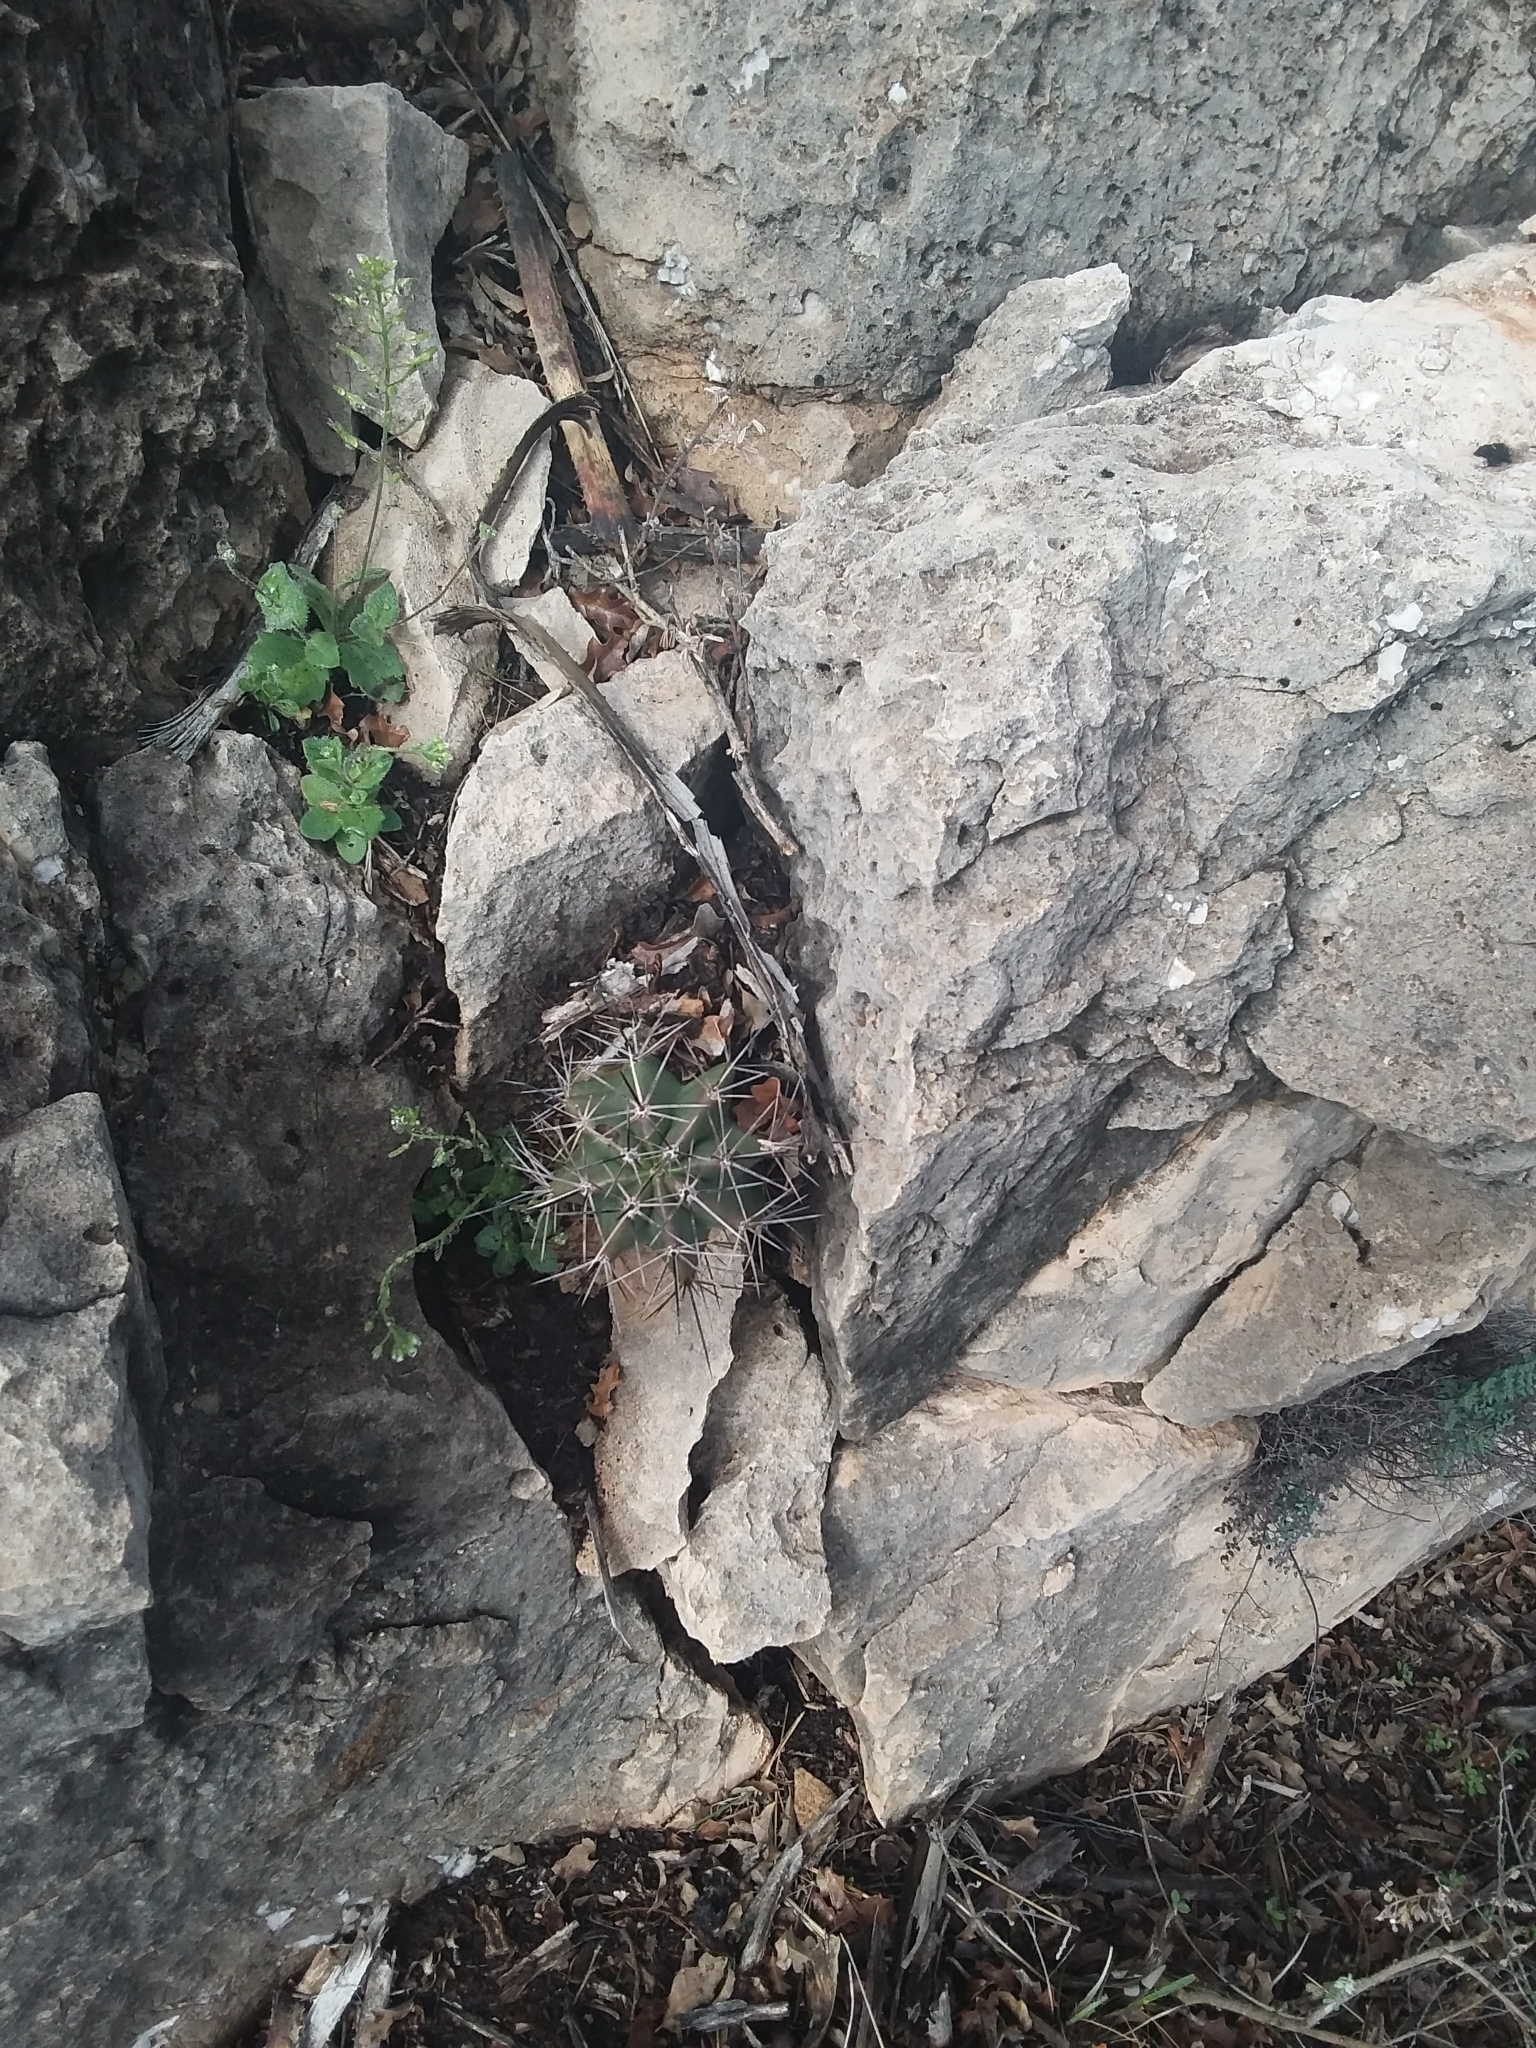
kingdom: Plantae
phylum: Tracheophyta
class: Magnoliopsida
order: Caryophyllales
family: Cactaceae
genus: Echinocereus
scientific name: Echinocereus coccineus
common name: Scarlet hedgehog cactus
